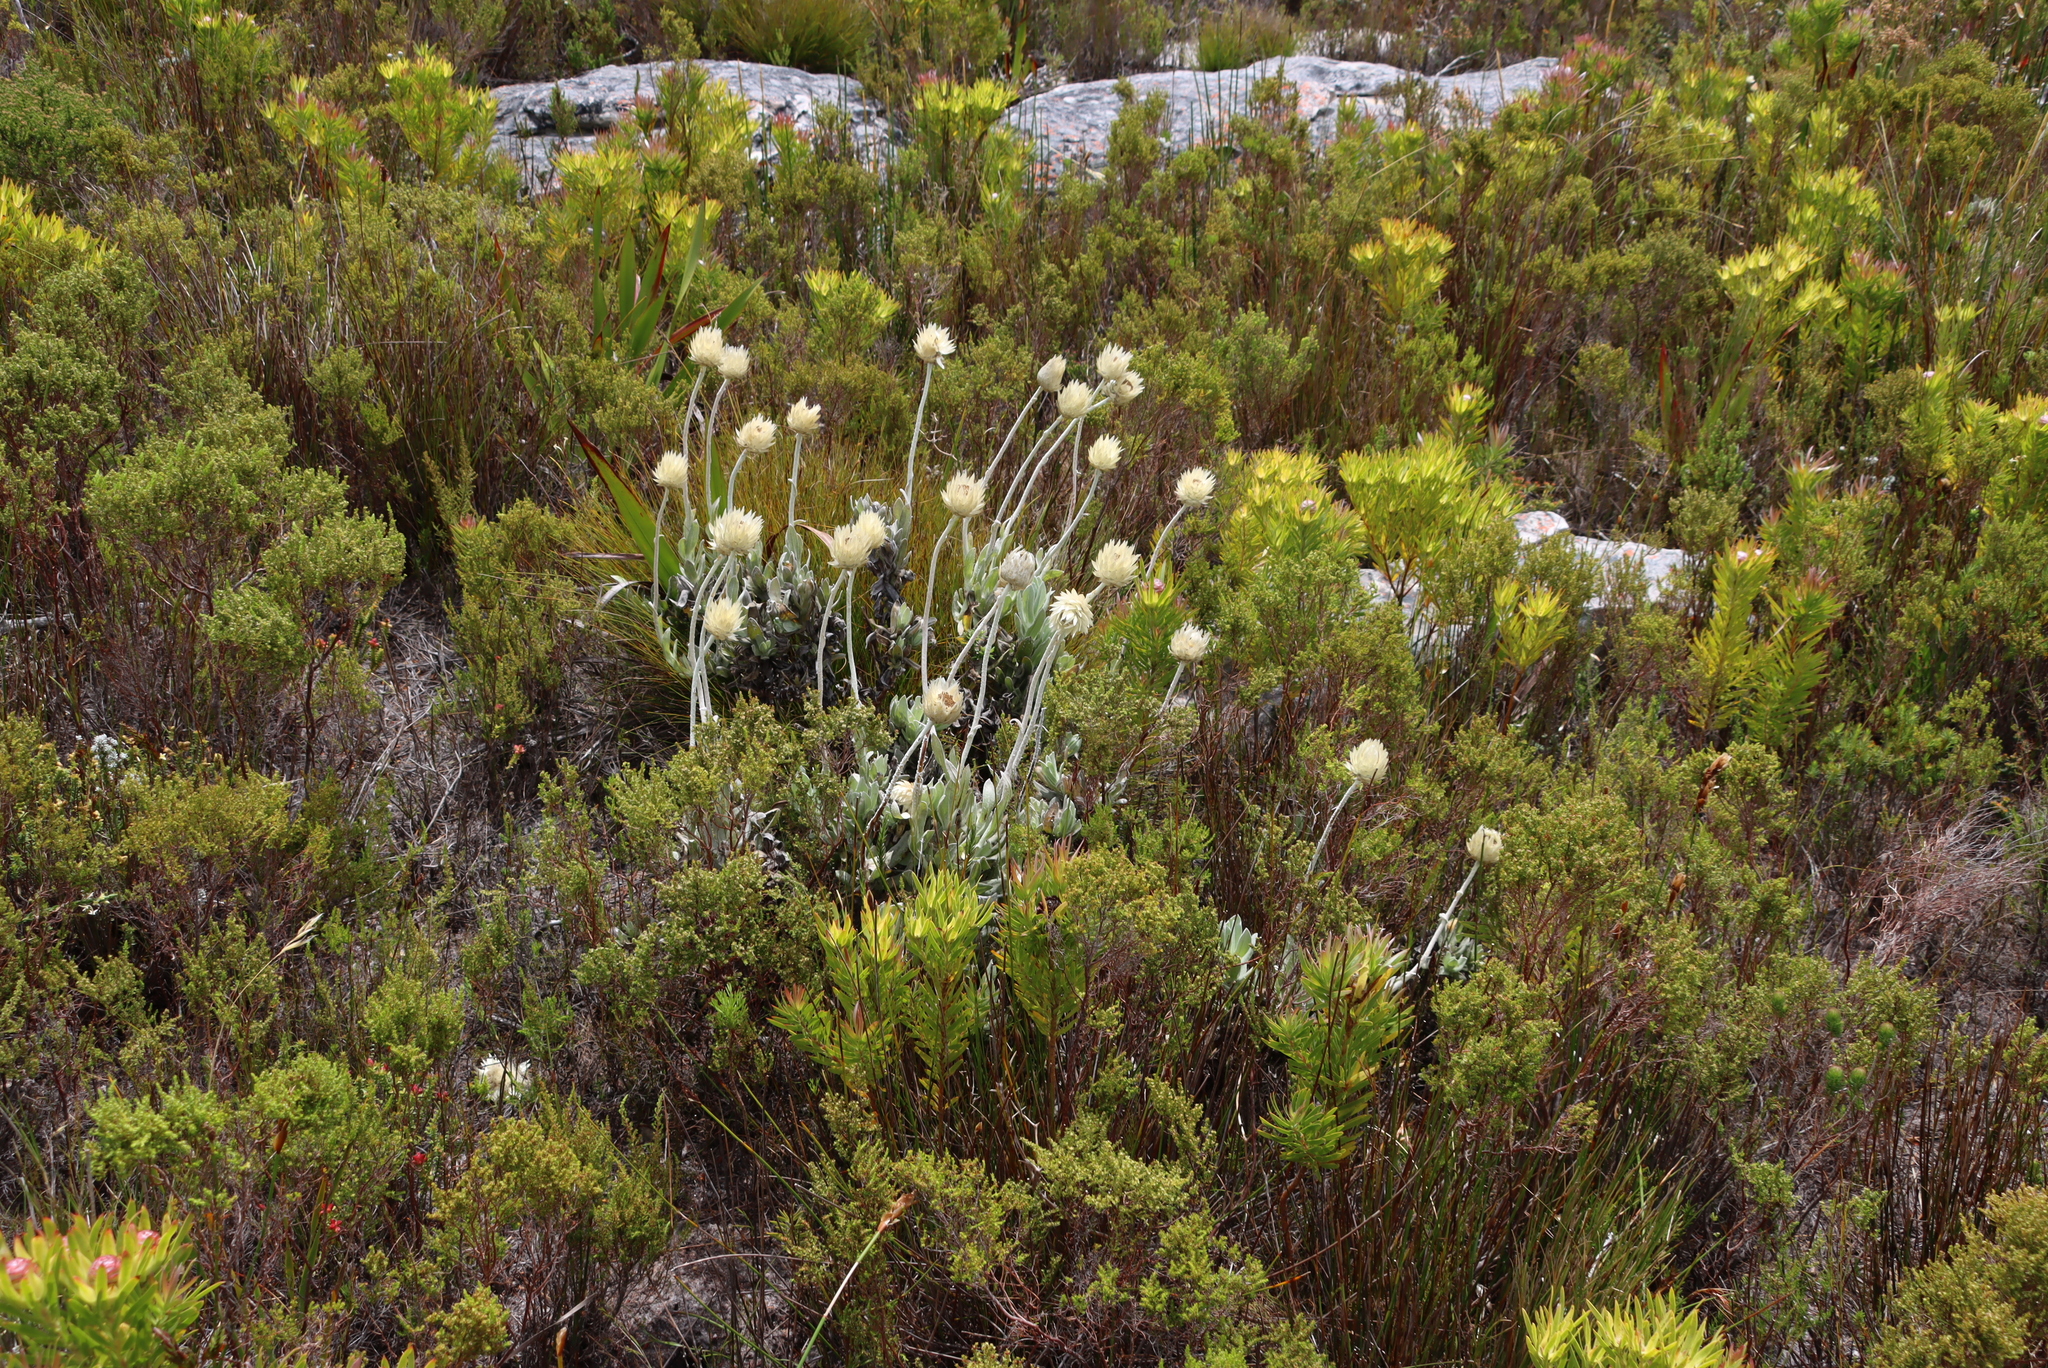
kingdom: Plantae
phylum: Tracheophyta
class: Magnoliopsida
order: Asterales
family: Asteraceae
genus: Syncarpha
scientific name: Syncarpha speciosissima
